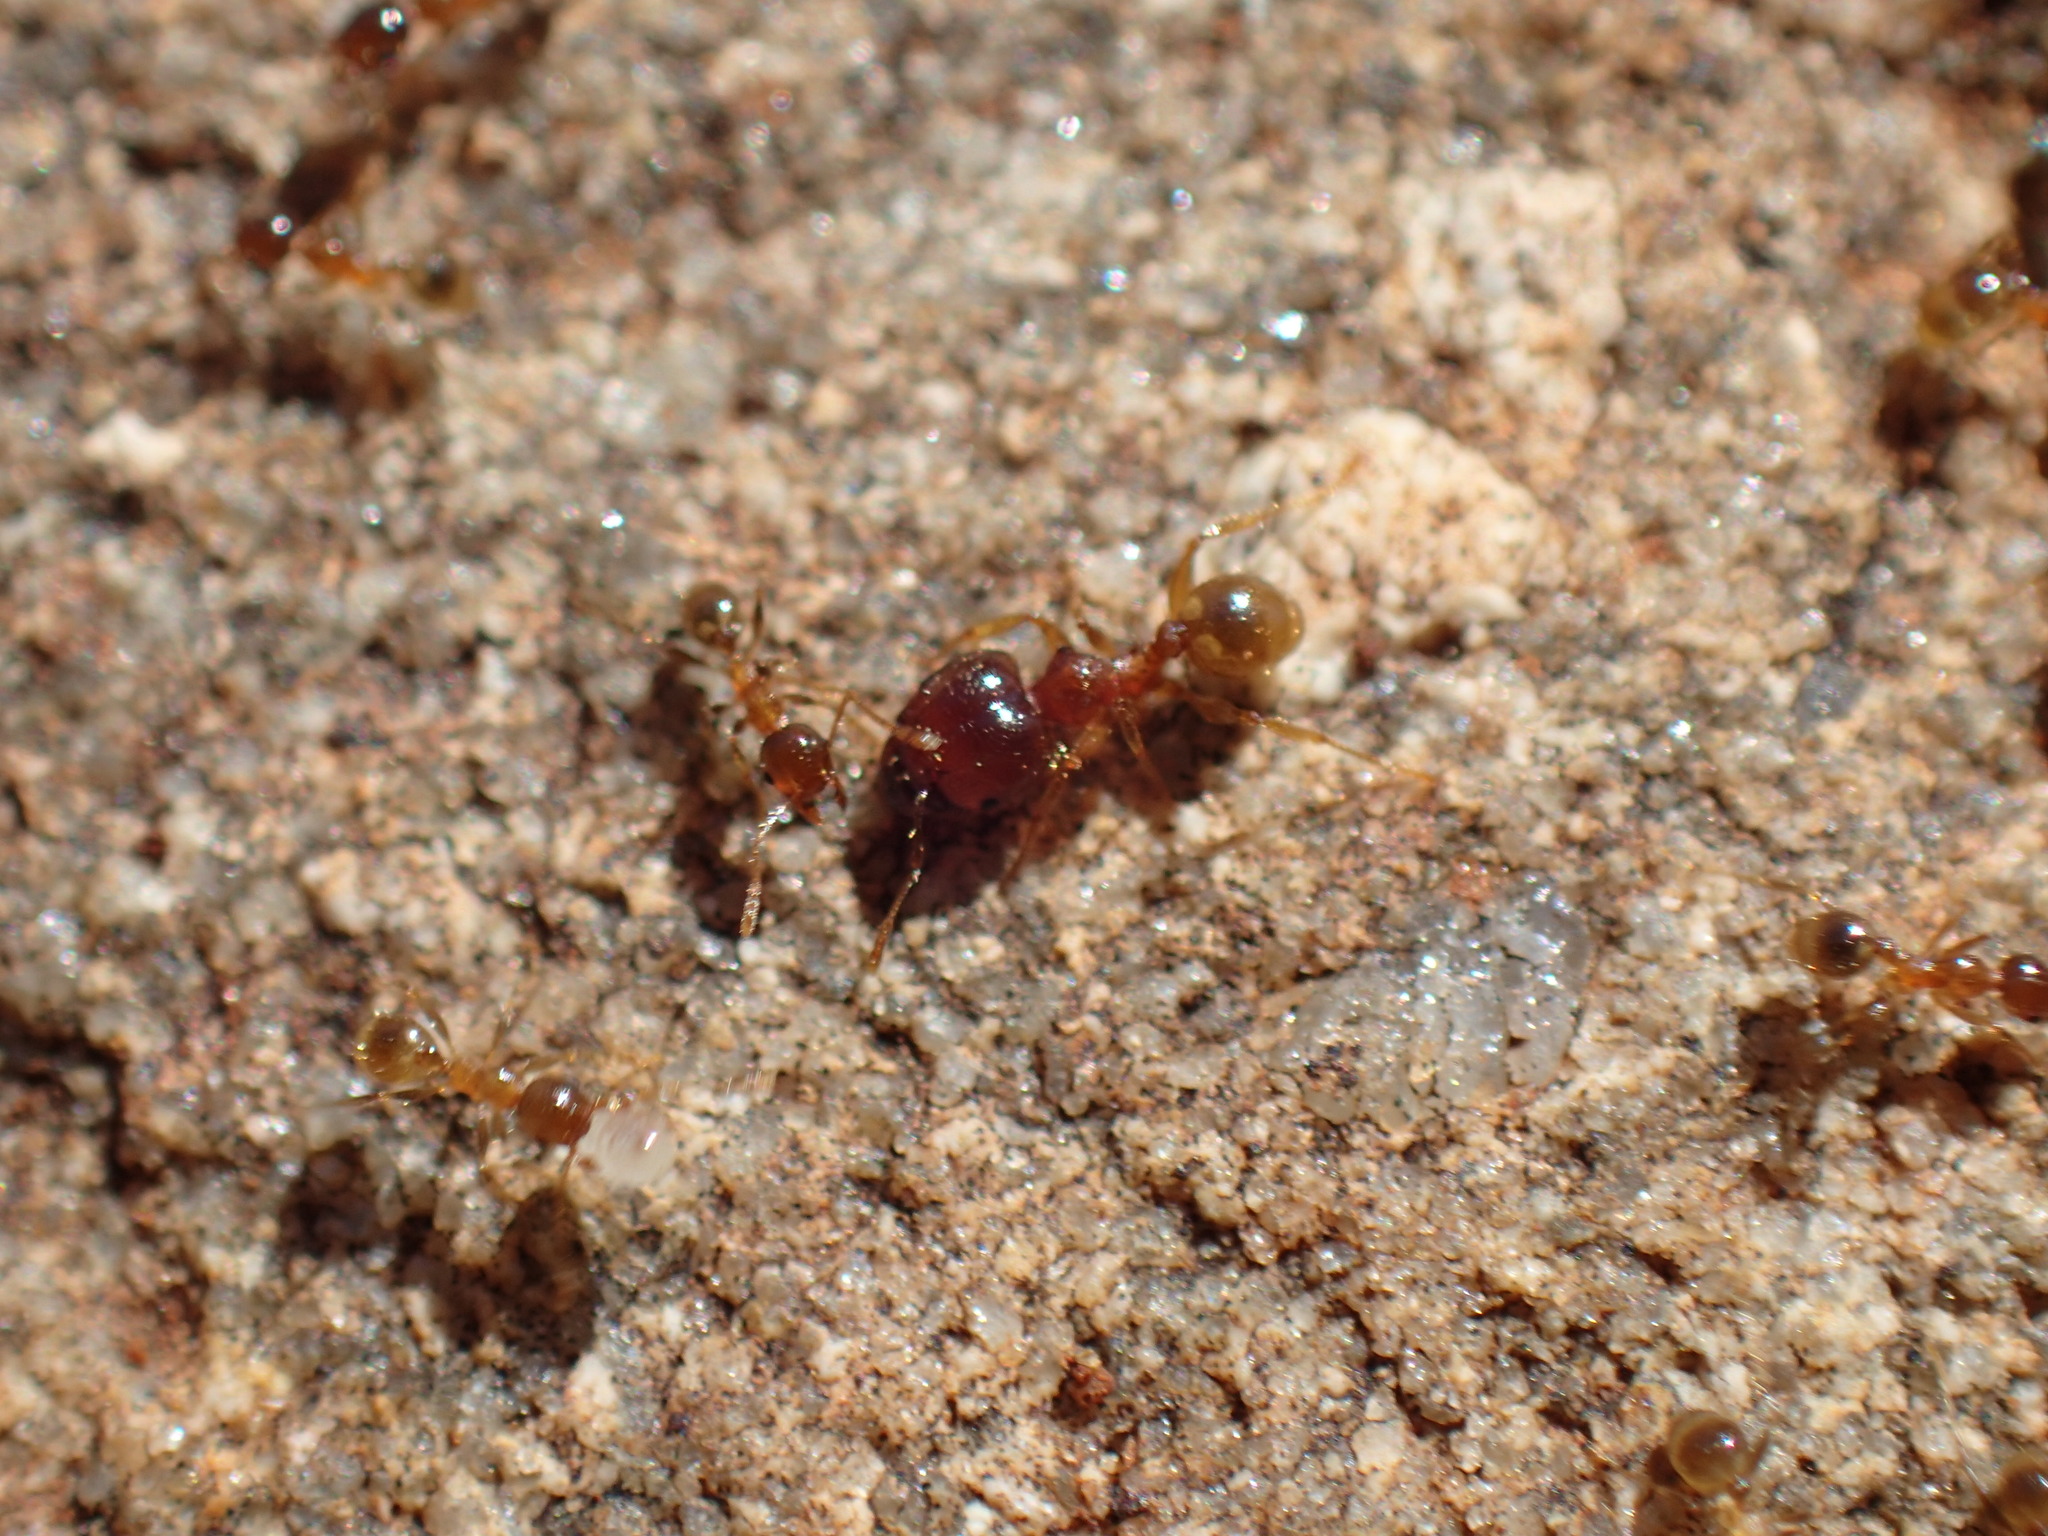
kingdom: Animalia
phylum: Arthropoda
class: Insecta
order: Hymenoptera
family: Formicidae
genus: Pheidole
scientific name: Pheidole megacephala
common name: Bigheaded ant
